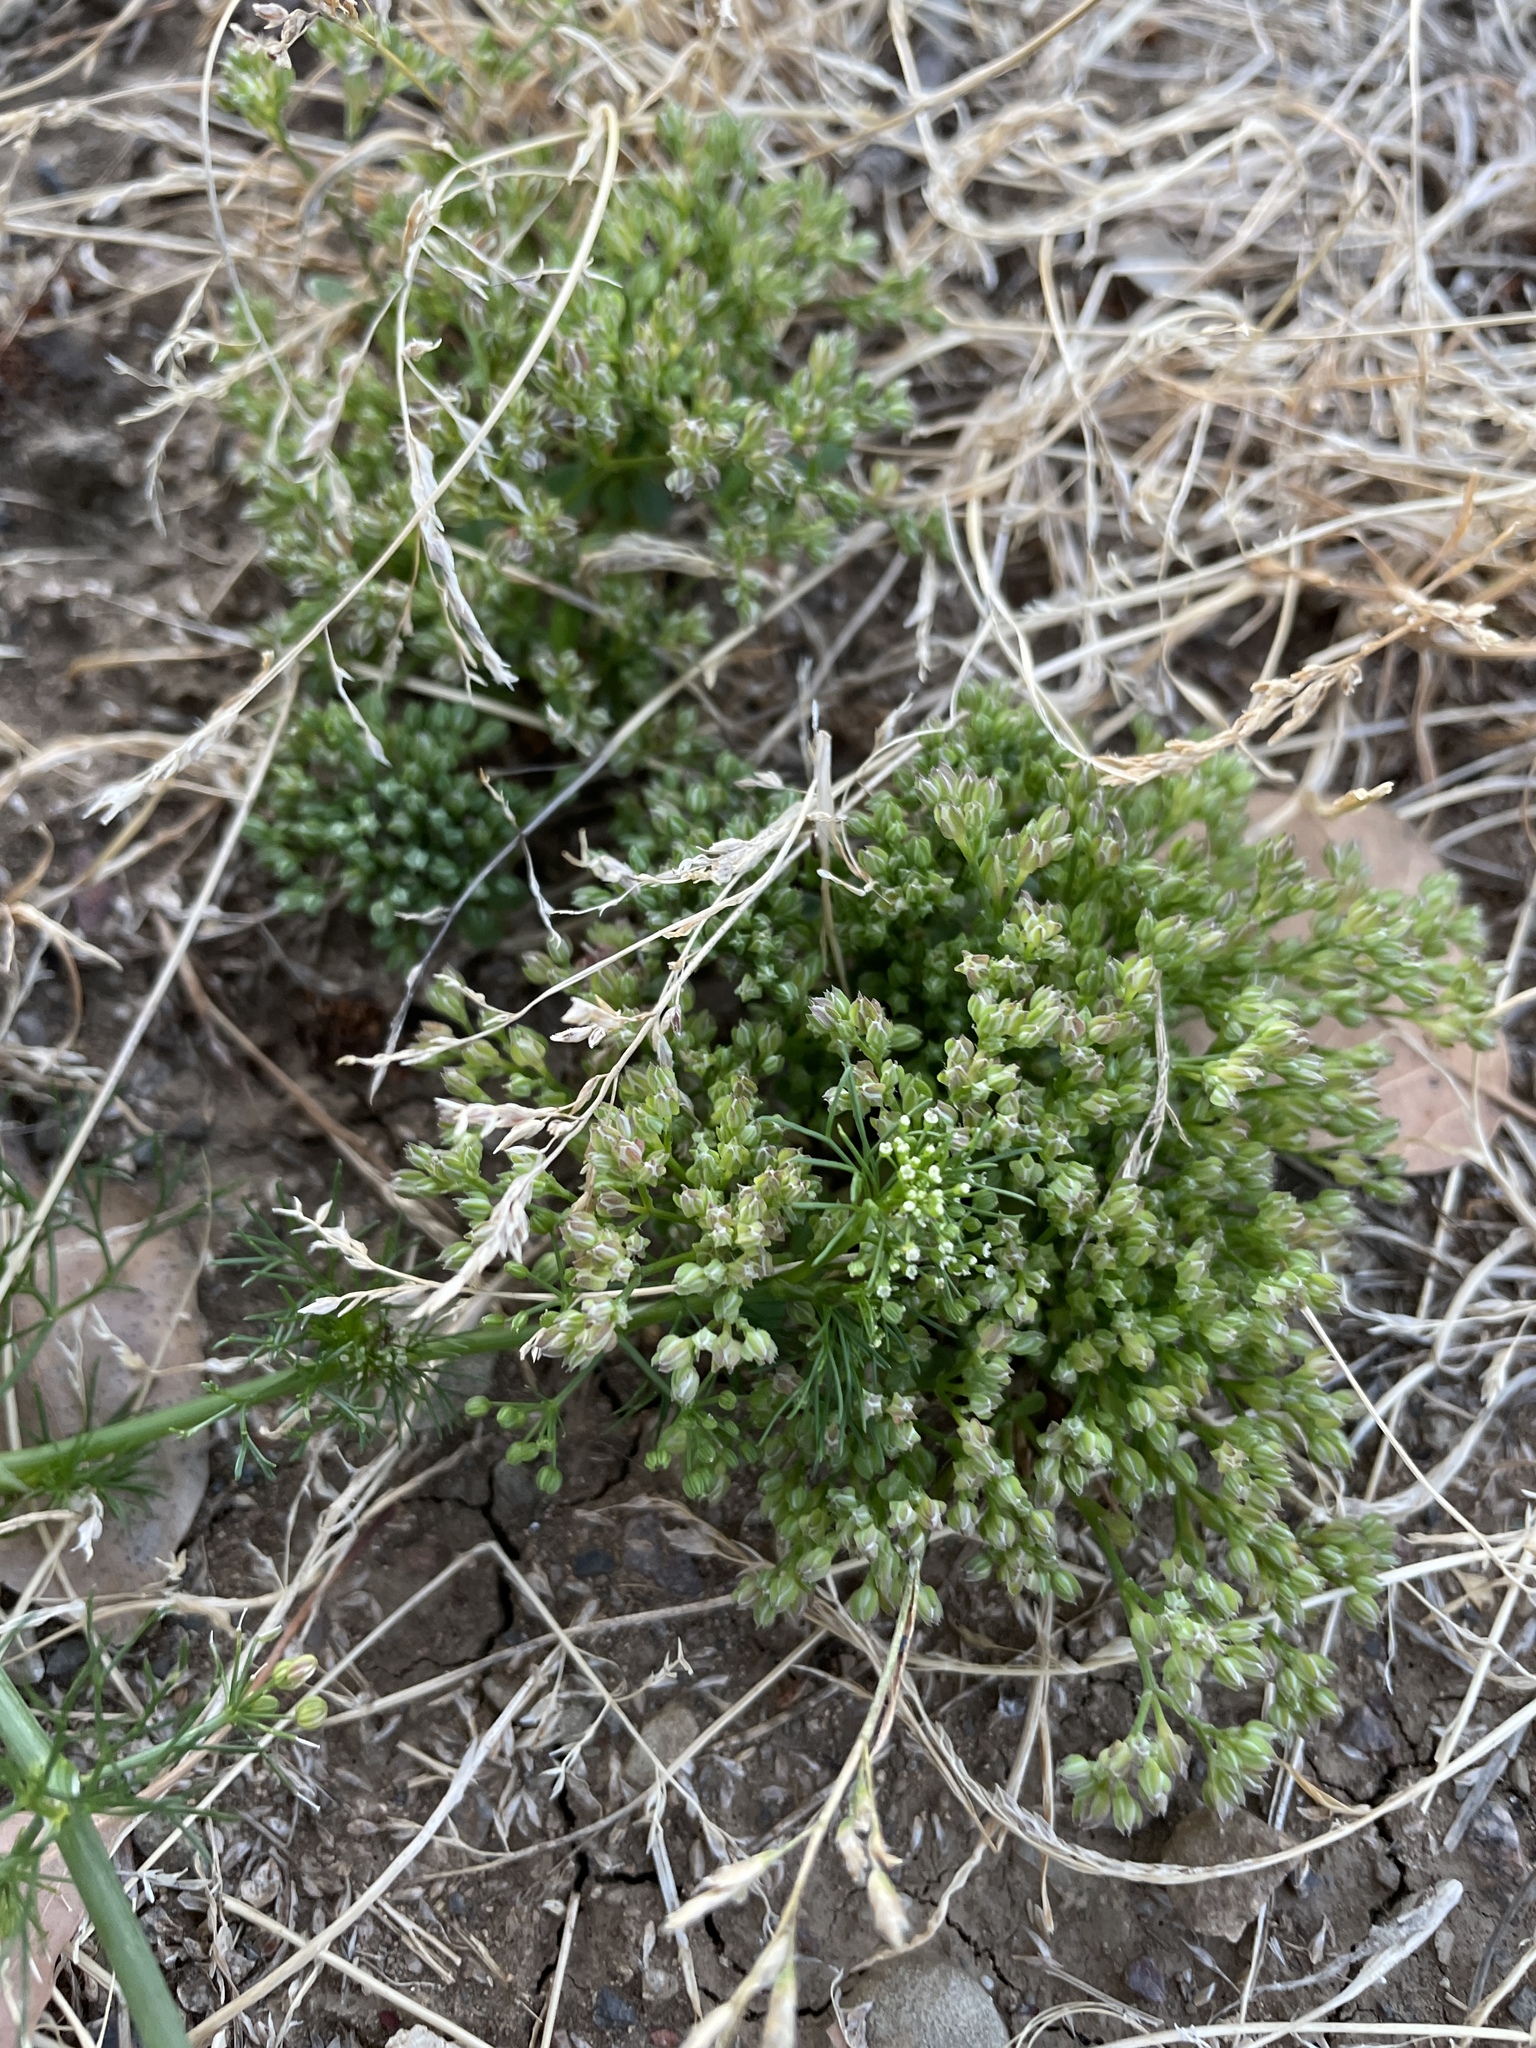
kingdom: Plantae
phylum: Tracheophyta
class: Magnoliopsida
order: Caryophyllales
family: Caryophyllaceae
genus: Polycarpon
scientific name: Polycarpon tetraphyllum
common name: Four-leaved all-seed
